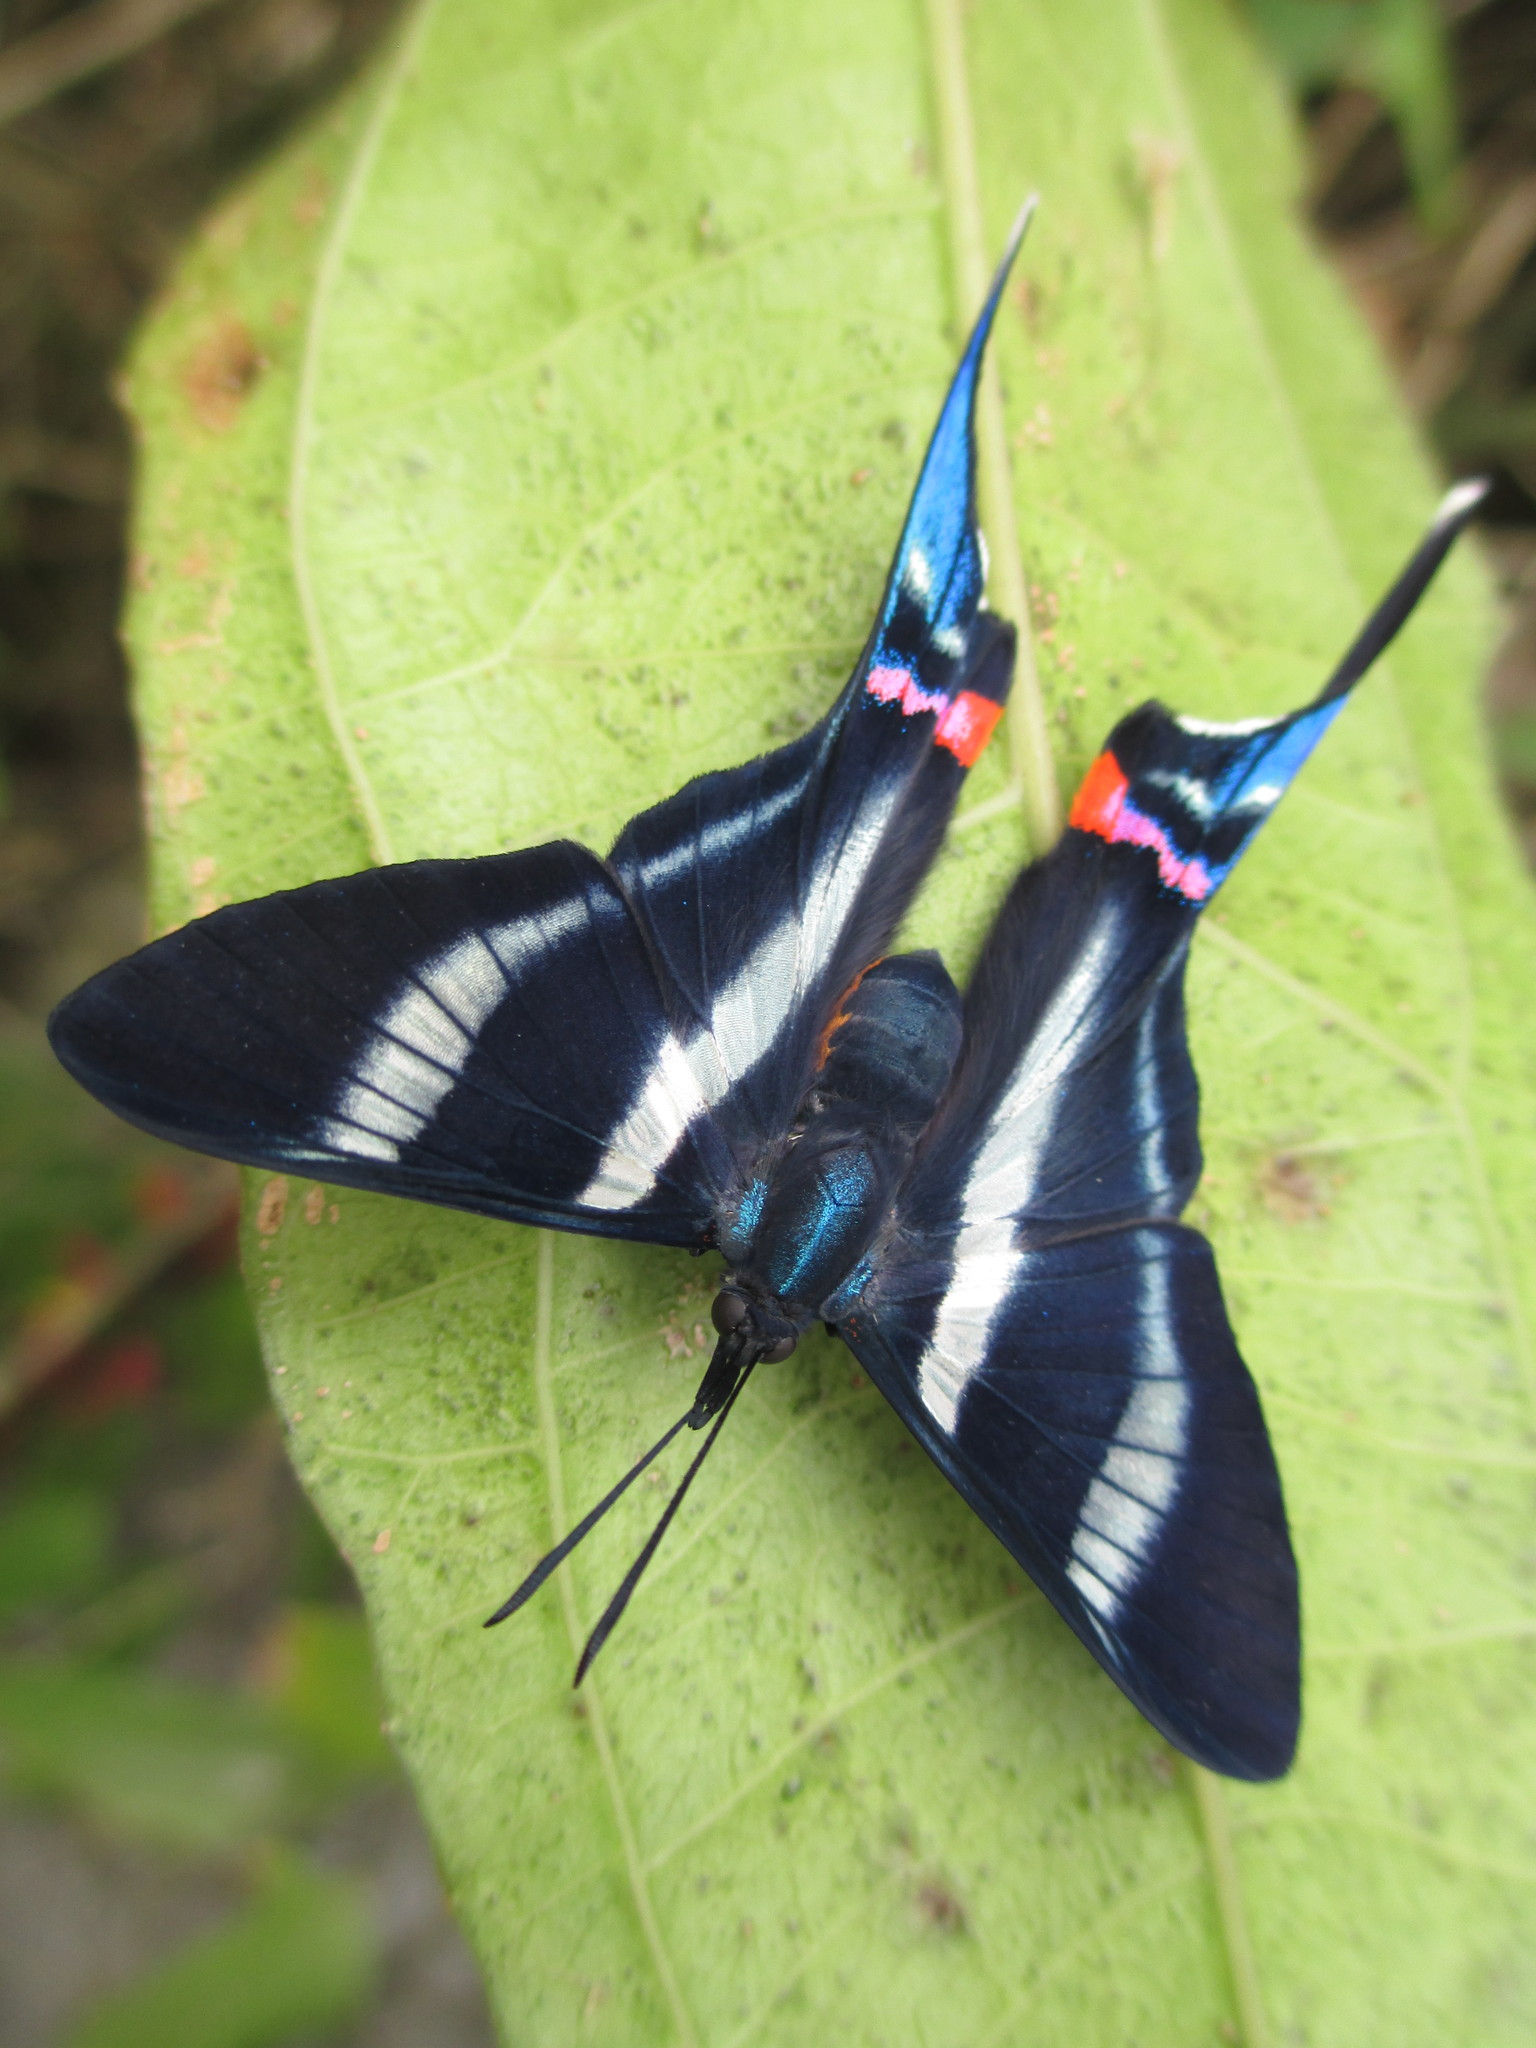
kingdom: Animalia
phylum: Arthropoda
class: Insecta
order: Lepidoptera
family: Riodinidae
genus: Rhetus
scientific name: Rhetus arcius
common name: Long-tailed metalmark
